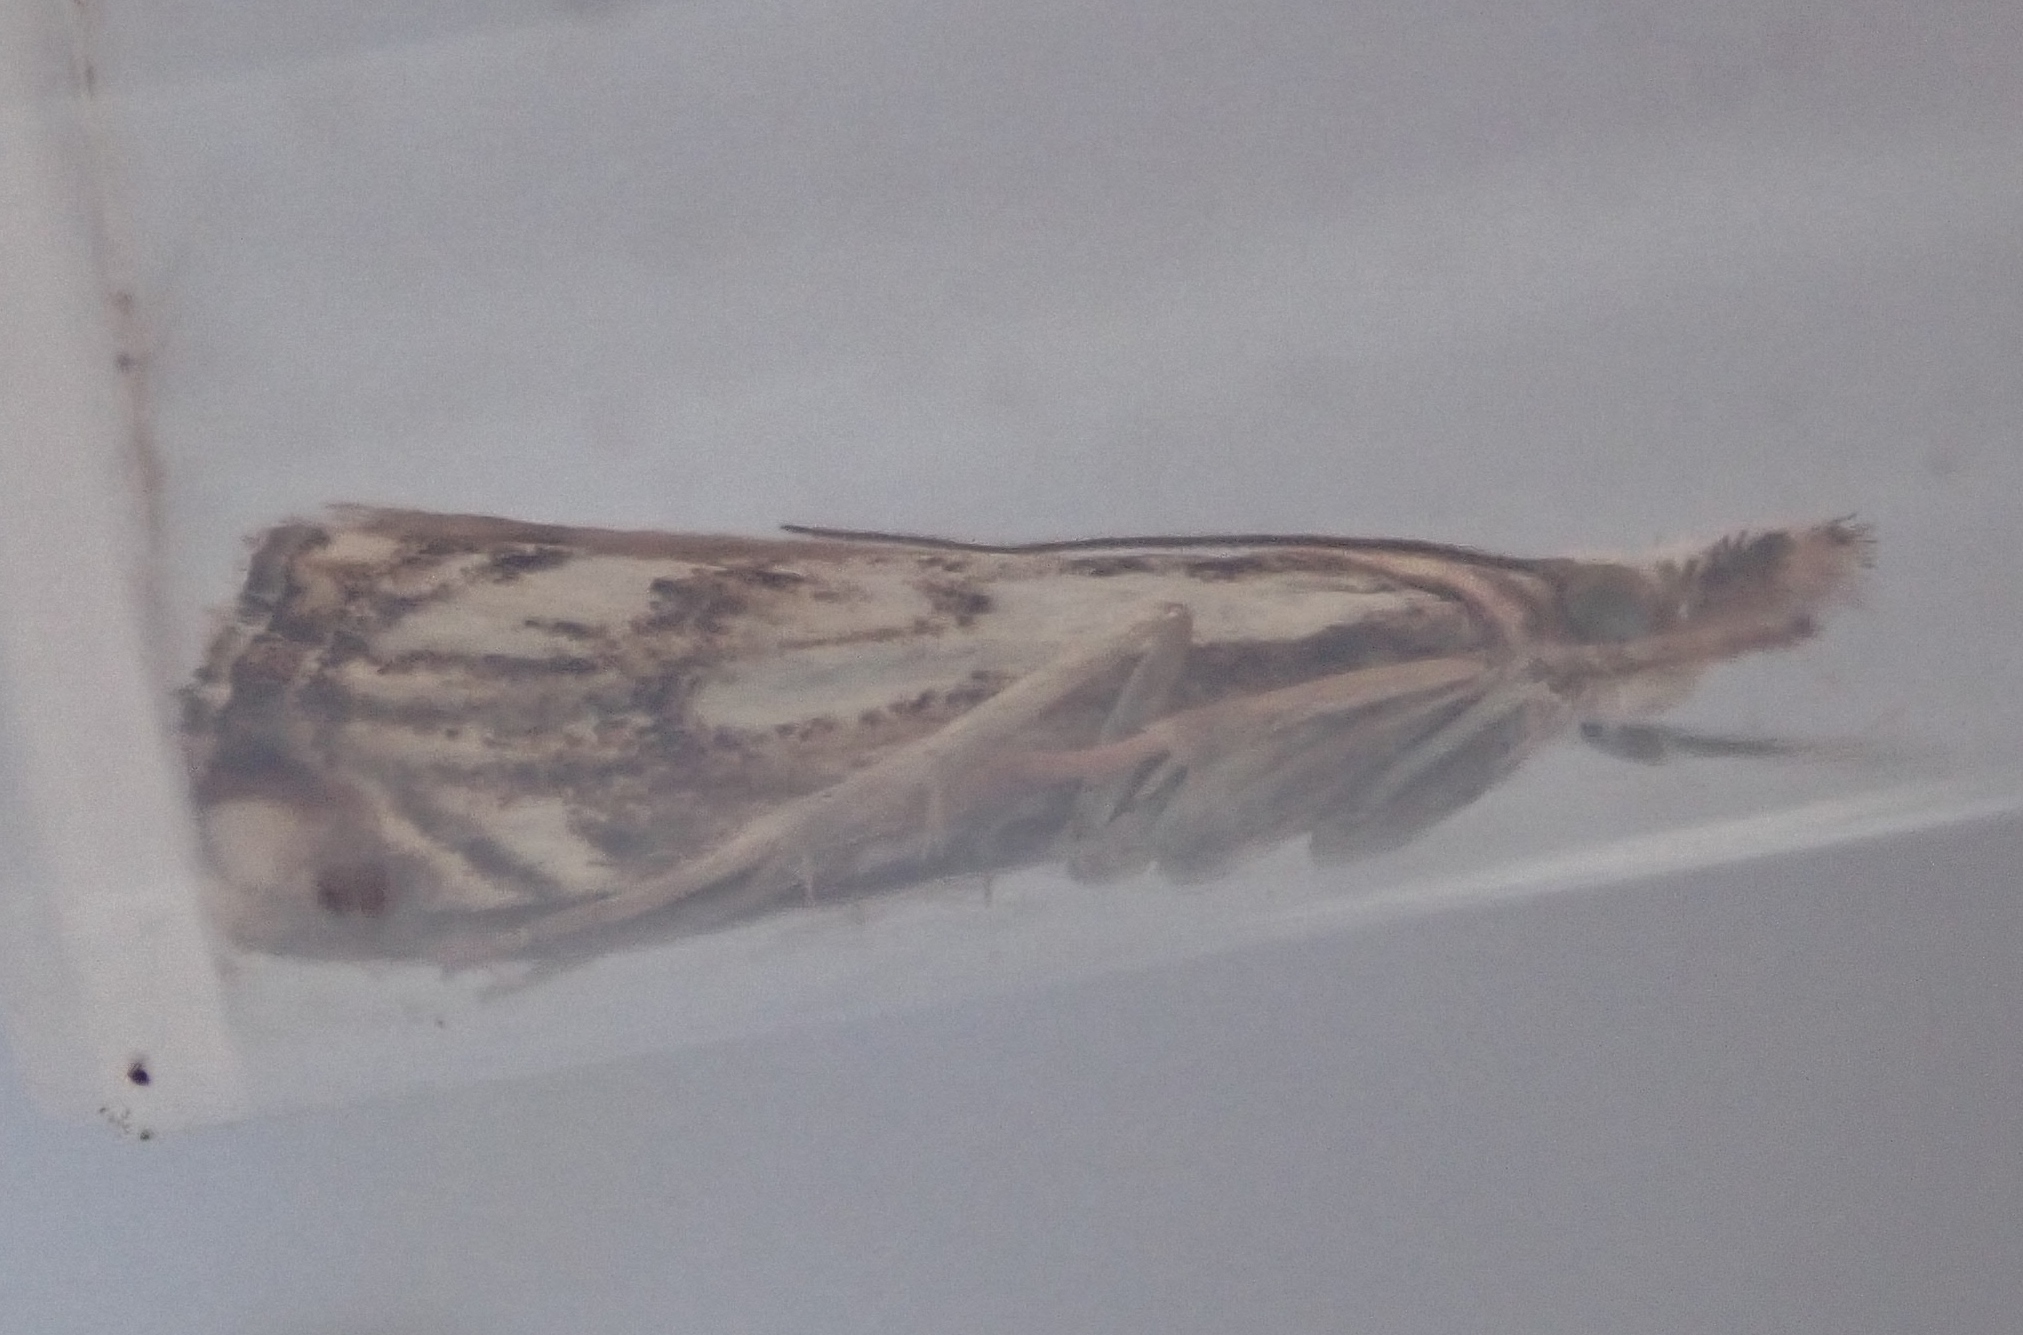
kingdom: Animalia
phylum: Arthropoda
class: Insecta
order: Lepidoptera
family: Crambidae
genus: Catoptria
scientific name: Catoptria falsella
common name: Chequered grass-veneer
